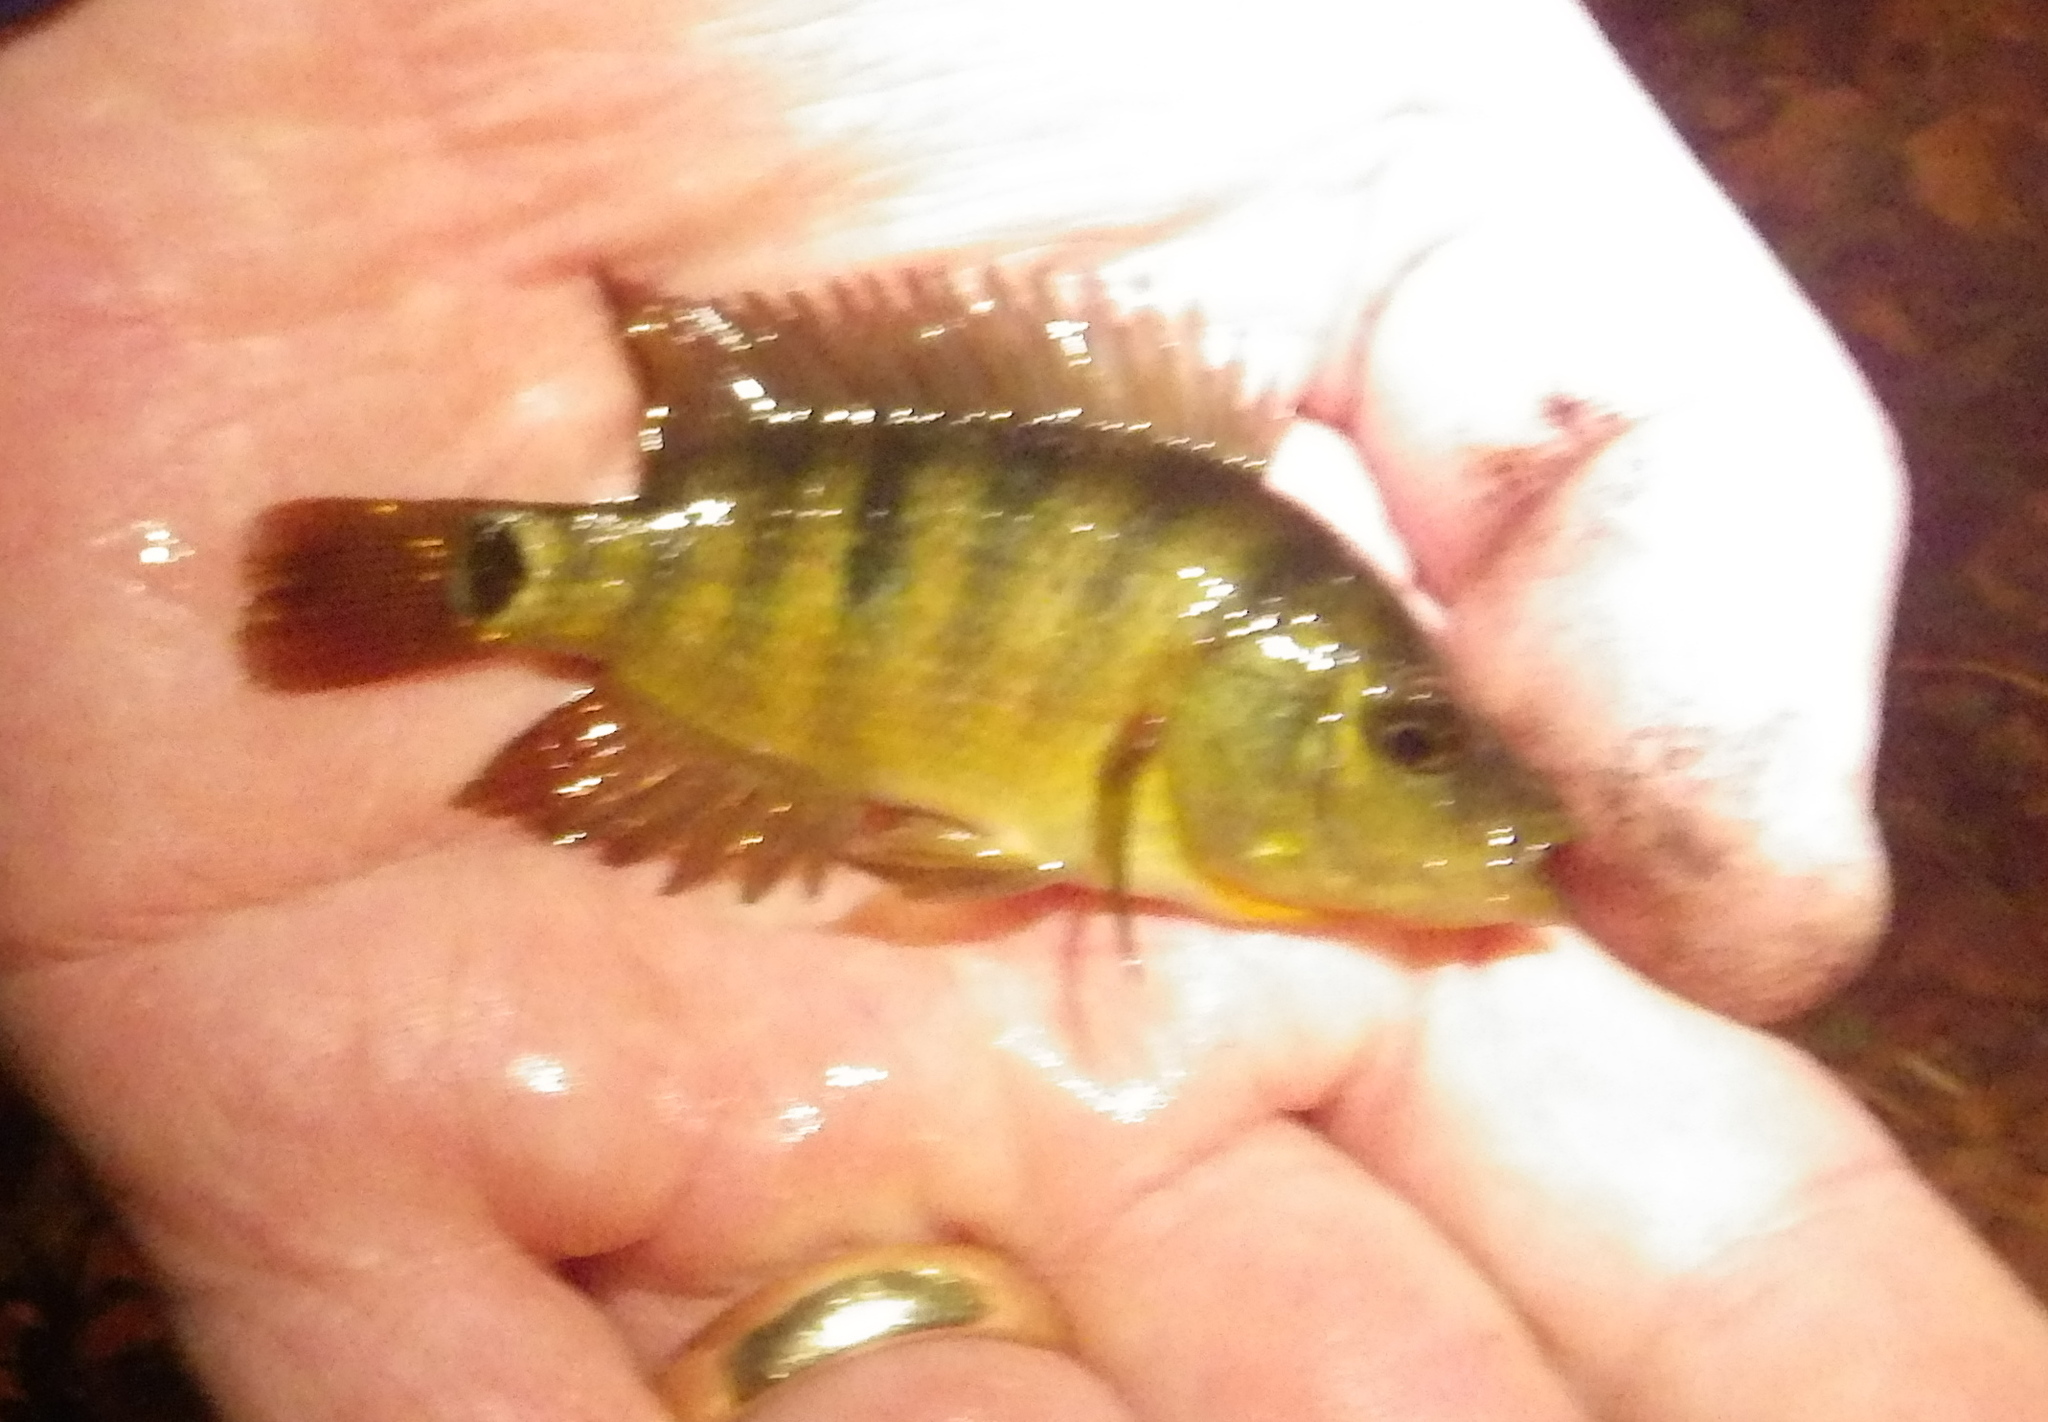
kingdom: Animalia
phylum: Chordata
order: Perciformes
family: Cichlidae
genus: Mayaheros
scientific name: Mayaheros urophthalmus
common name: Mayan cichlid
